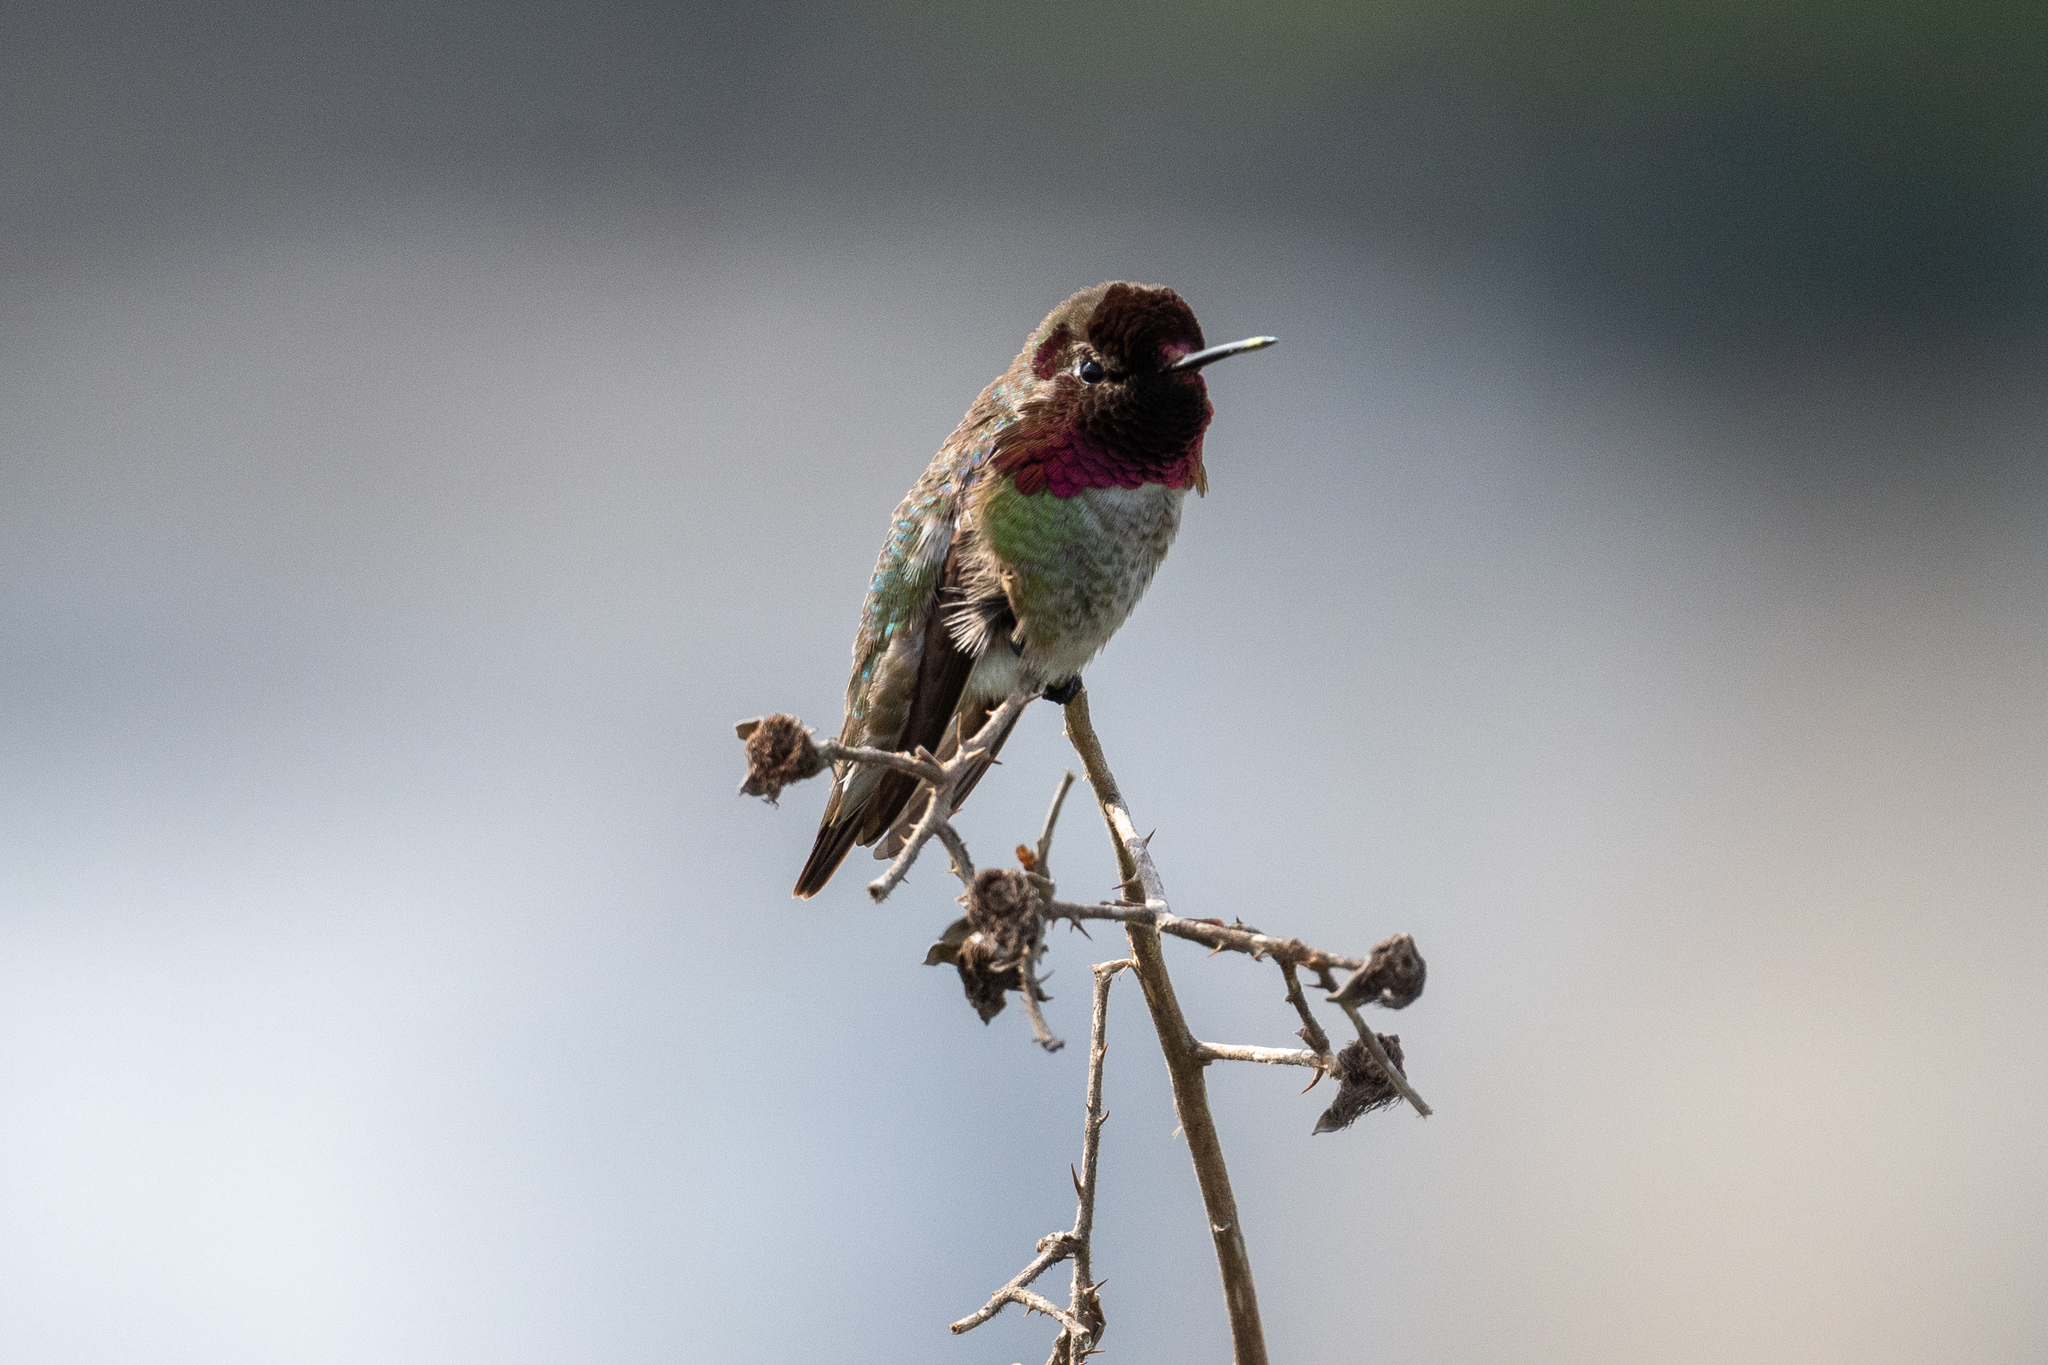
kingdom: Animalia
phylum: Chordata
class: Aves
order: Apodiformes
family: Trochilidae
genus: Calypte
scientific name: Calypte anna
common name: Anna's hummingbird
